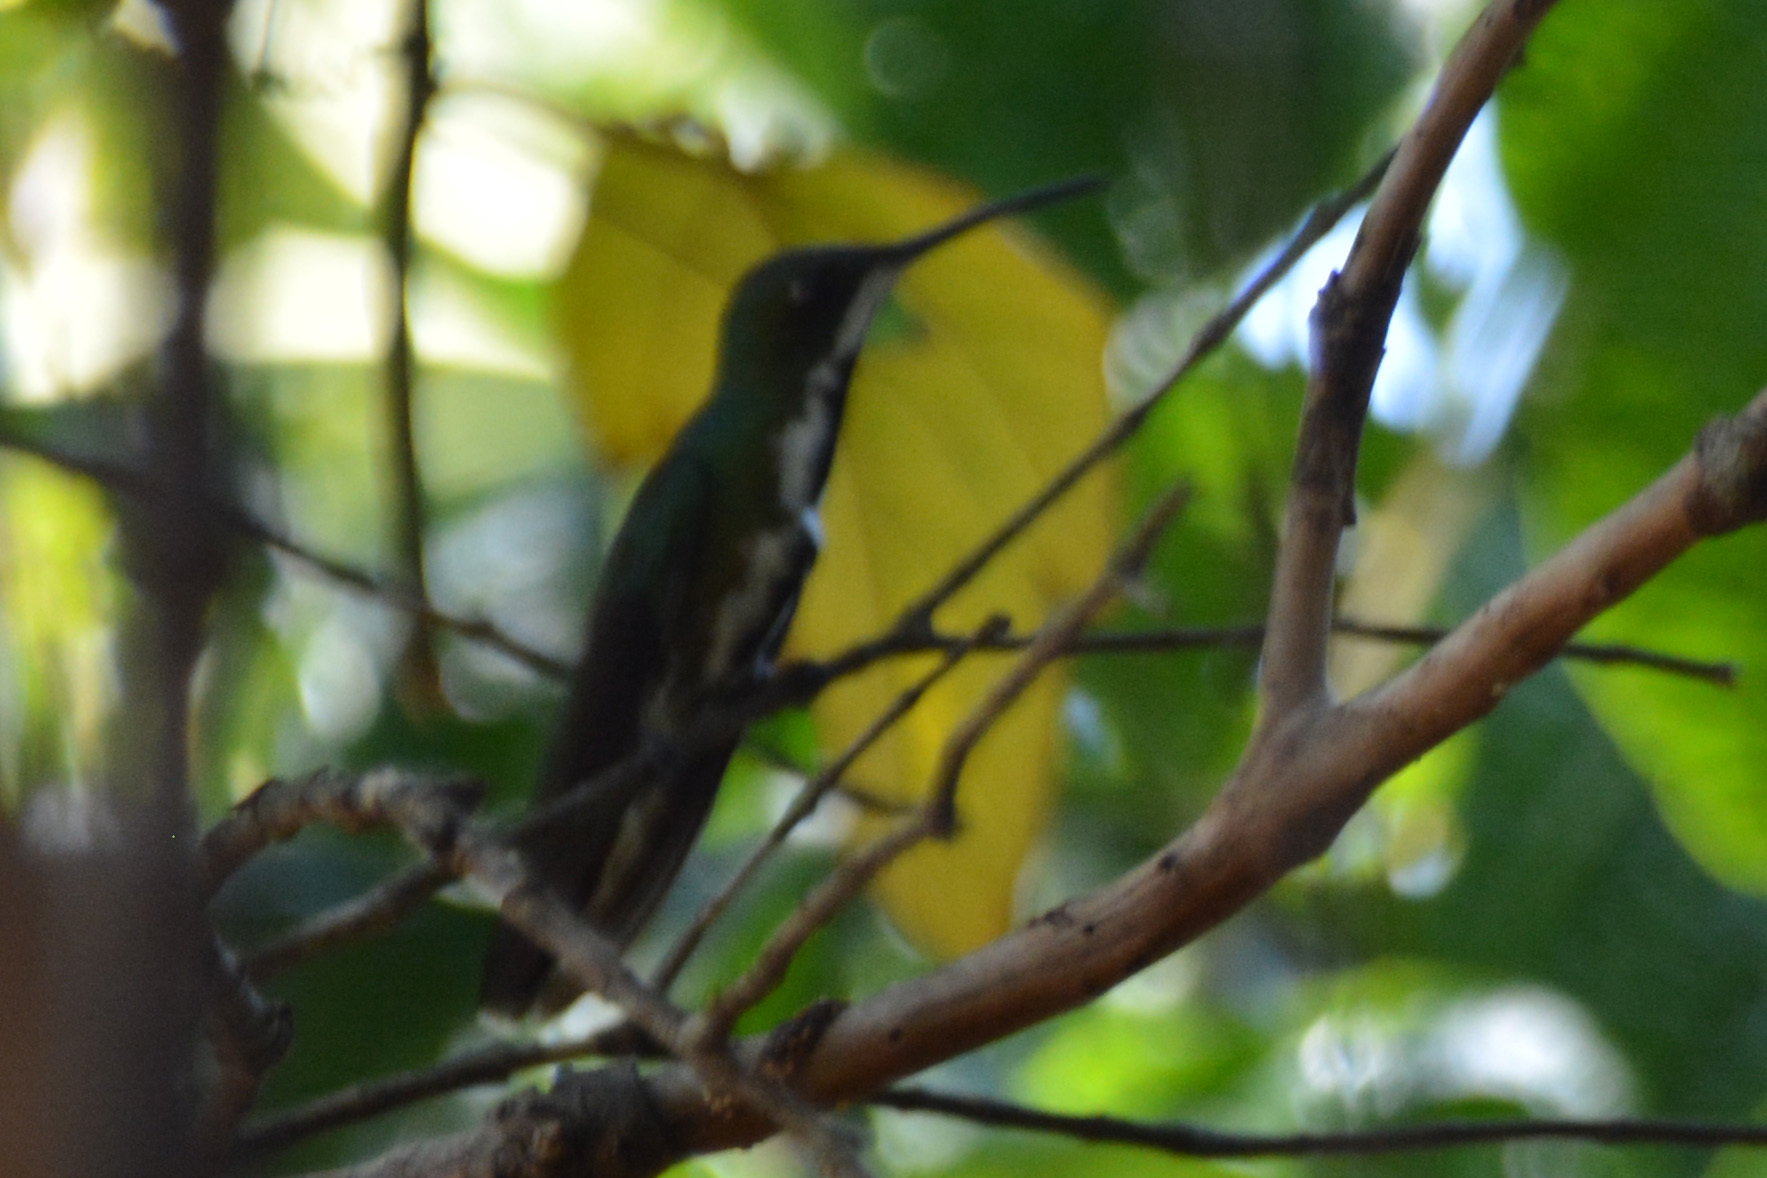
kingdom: Animalia
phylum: Chordata
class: Aves
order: Apodiformes
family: Trochilidae
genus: Anthracothorax
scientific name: Anthracothorax nigricollis
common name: Black-throated mango
